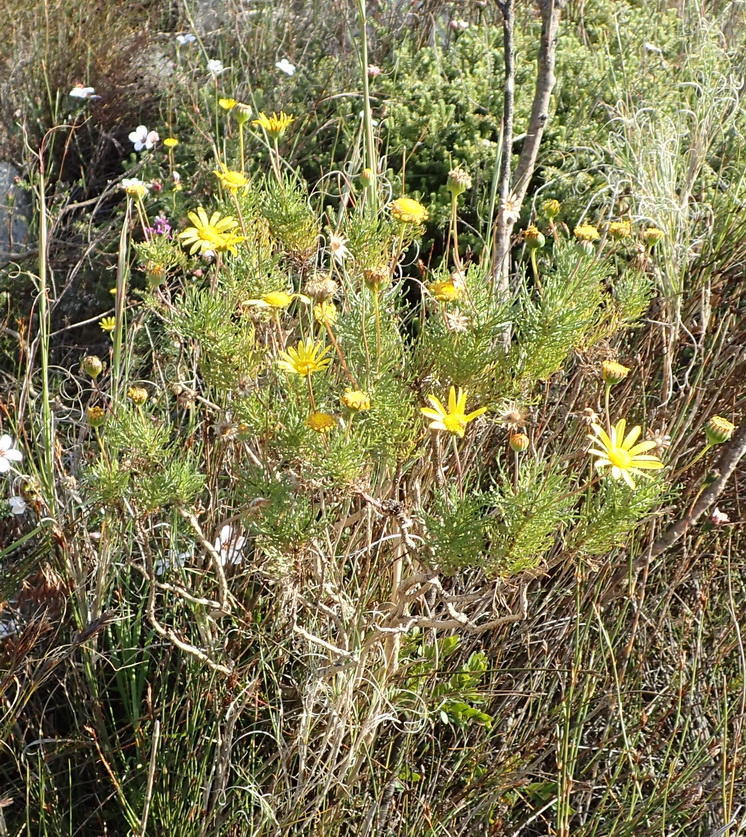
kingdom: Plantae
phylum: Tracheophyta
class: Magnoliopsida
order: Asterales
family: Asteraceae
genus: Euryops
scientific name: Euryops abrotanifolius
